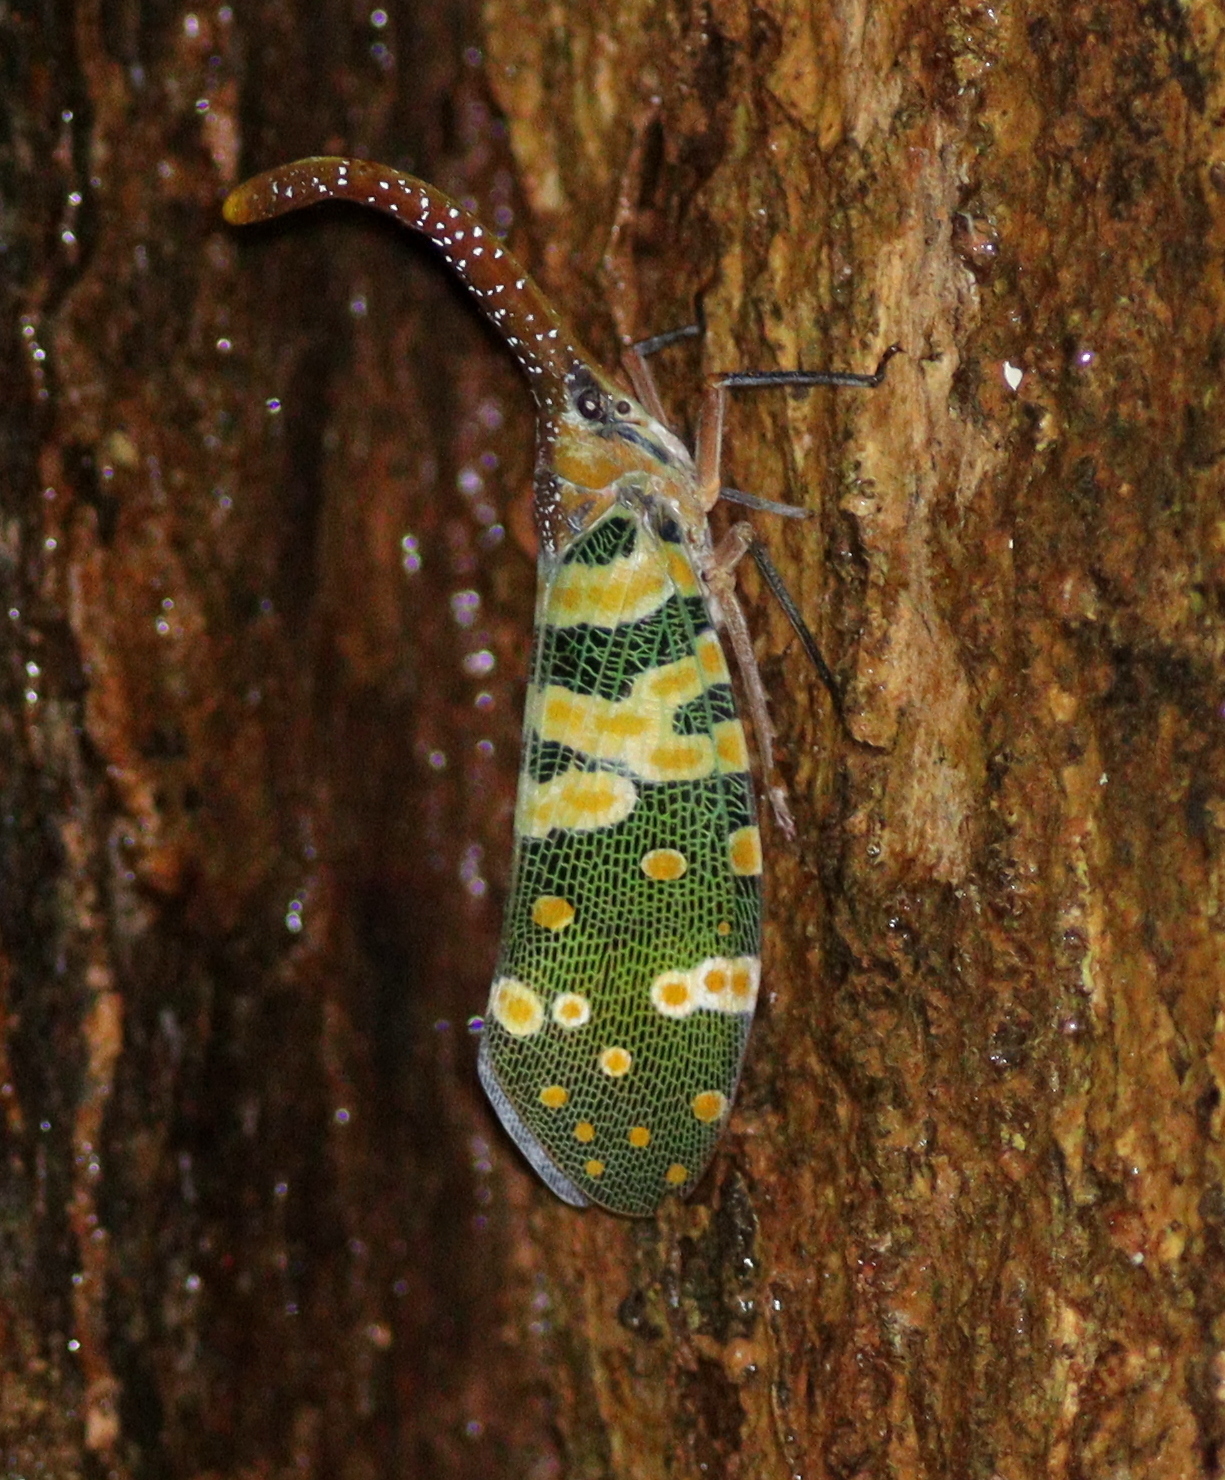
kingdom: Animalia
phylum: Arthropoda
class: Insecta
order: Hemiptera
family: Fulgoridae
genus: Pyrops
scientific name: Pyrops candelaria
